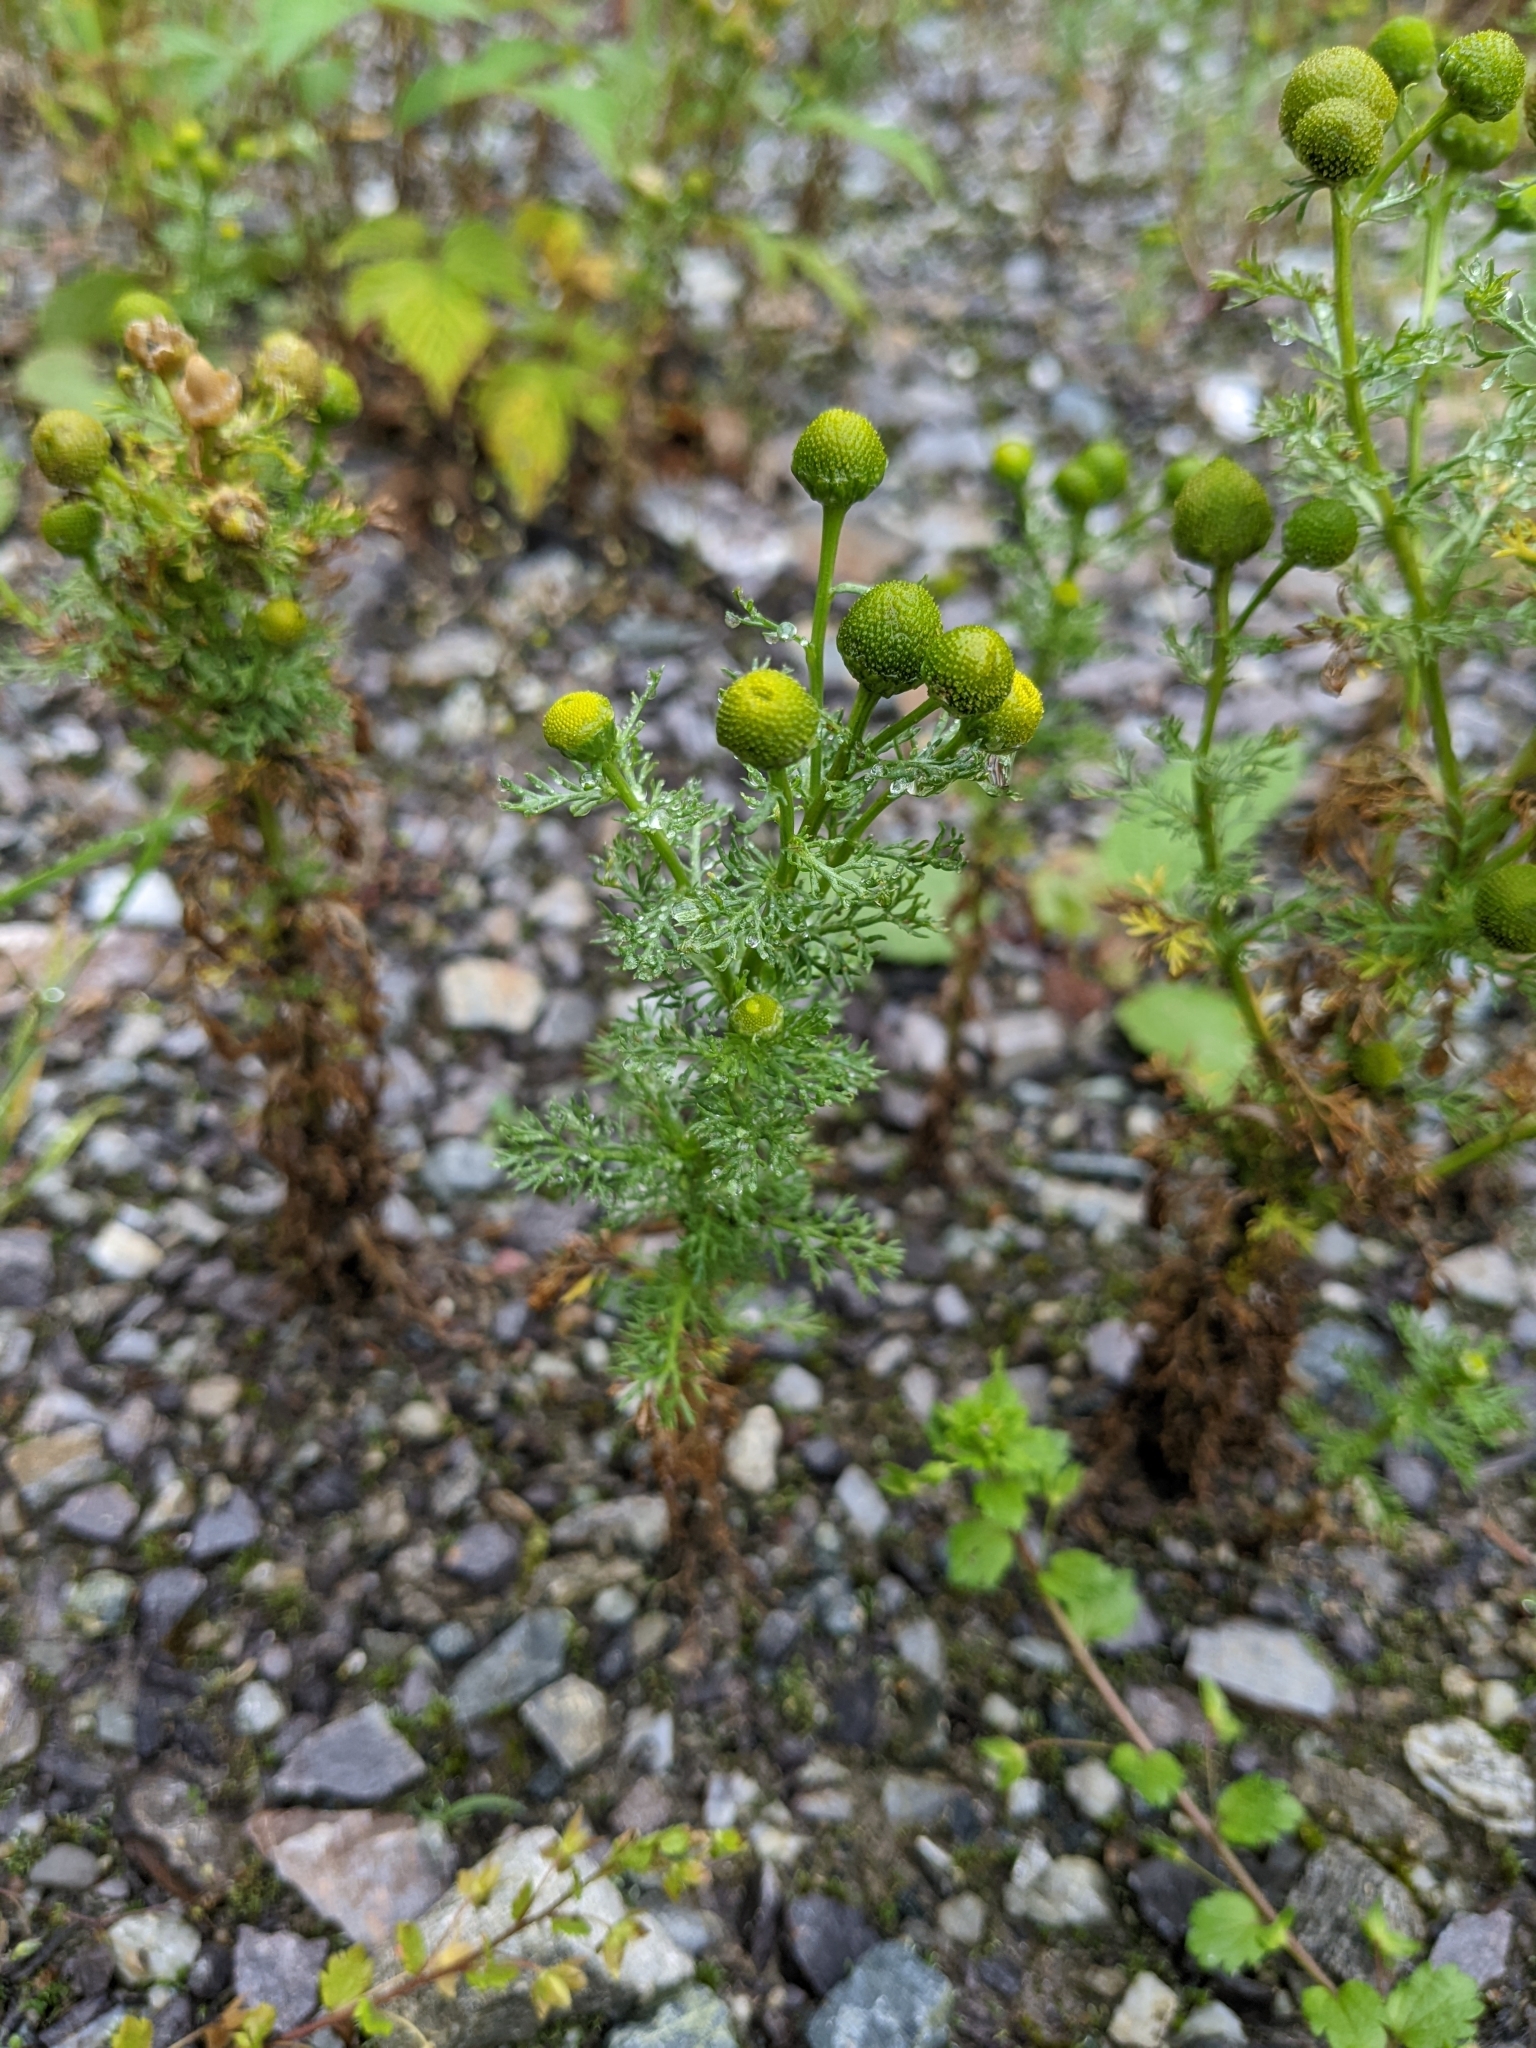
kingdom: Plantae
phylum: Tracheophyta
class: Magnoliopsida
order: Asterales
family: Asteraceae
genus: Matricaria
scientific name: Matricaria discoidea
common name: Disc mayweed
